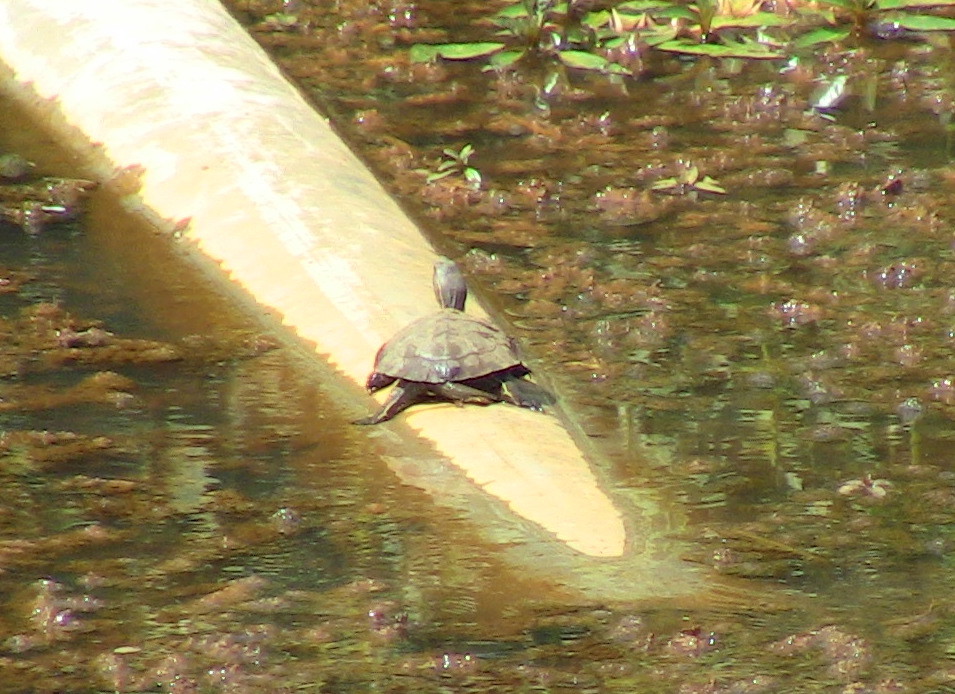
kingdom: Animalia
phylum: Chordata
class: Testudines
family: Geoemydidae
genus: Mauremys
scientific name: Mauremys rivulata
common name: Western caspian turtle
